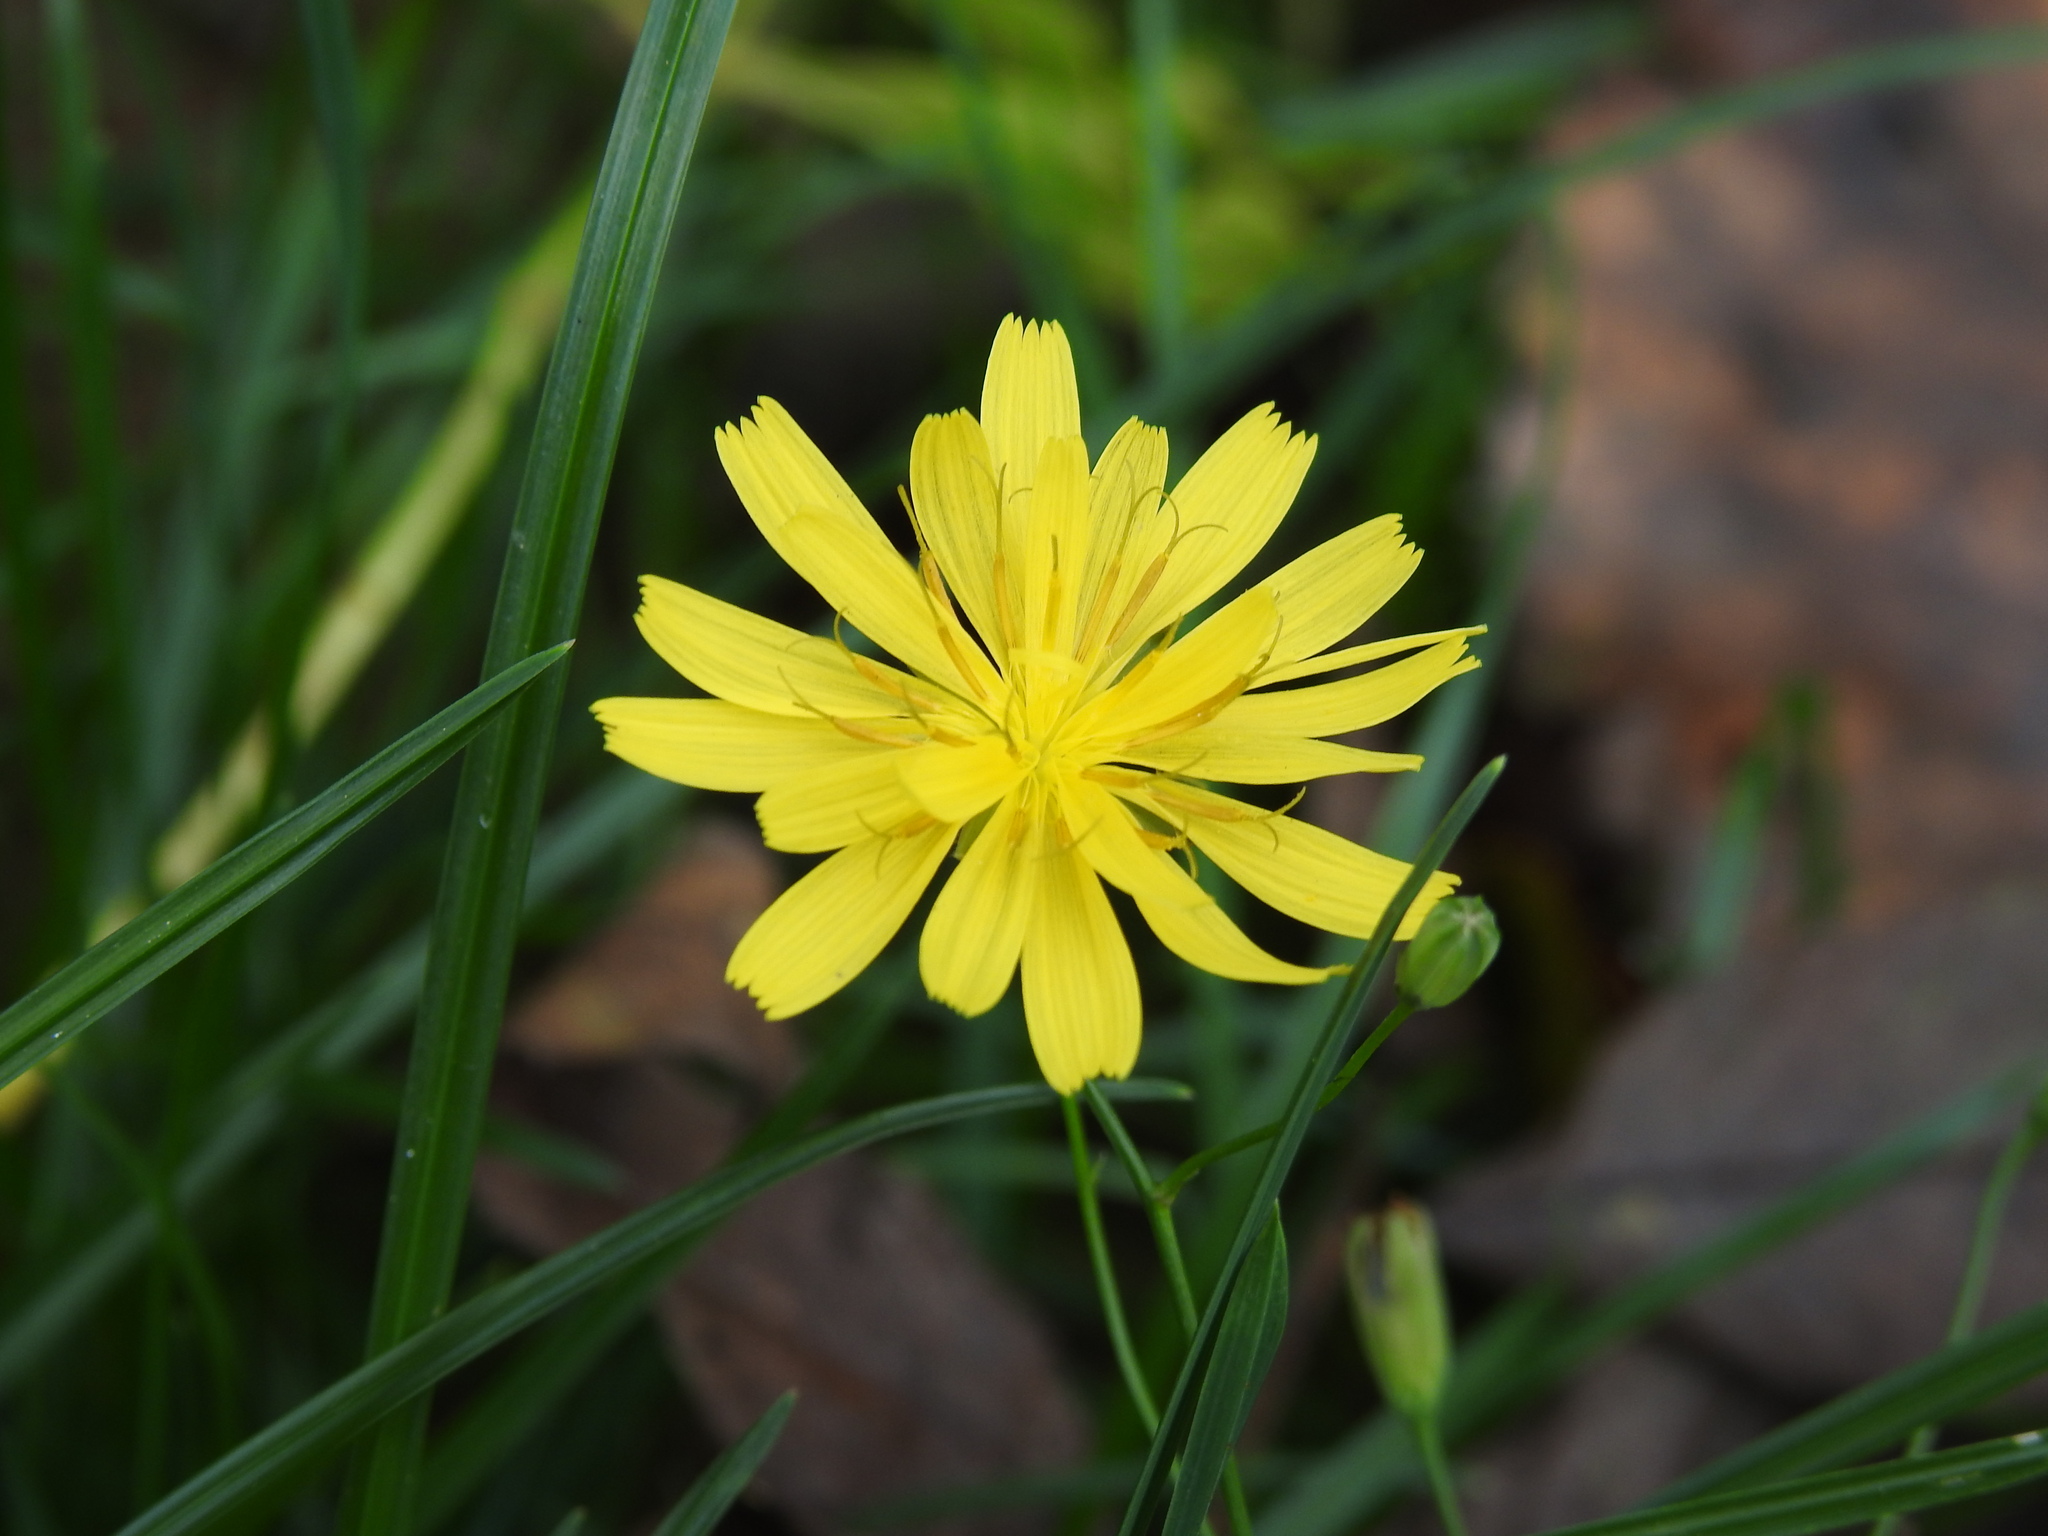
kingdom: Plantae
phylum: Tracheophyta
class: Magnoliopsida
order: Asterales
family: Asteraceae
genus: Lapsana
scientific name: Lapsana communis
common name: Nipplewort
